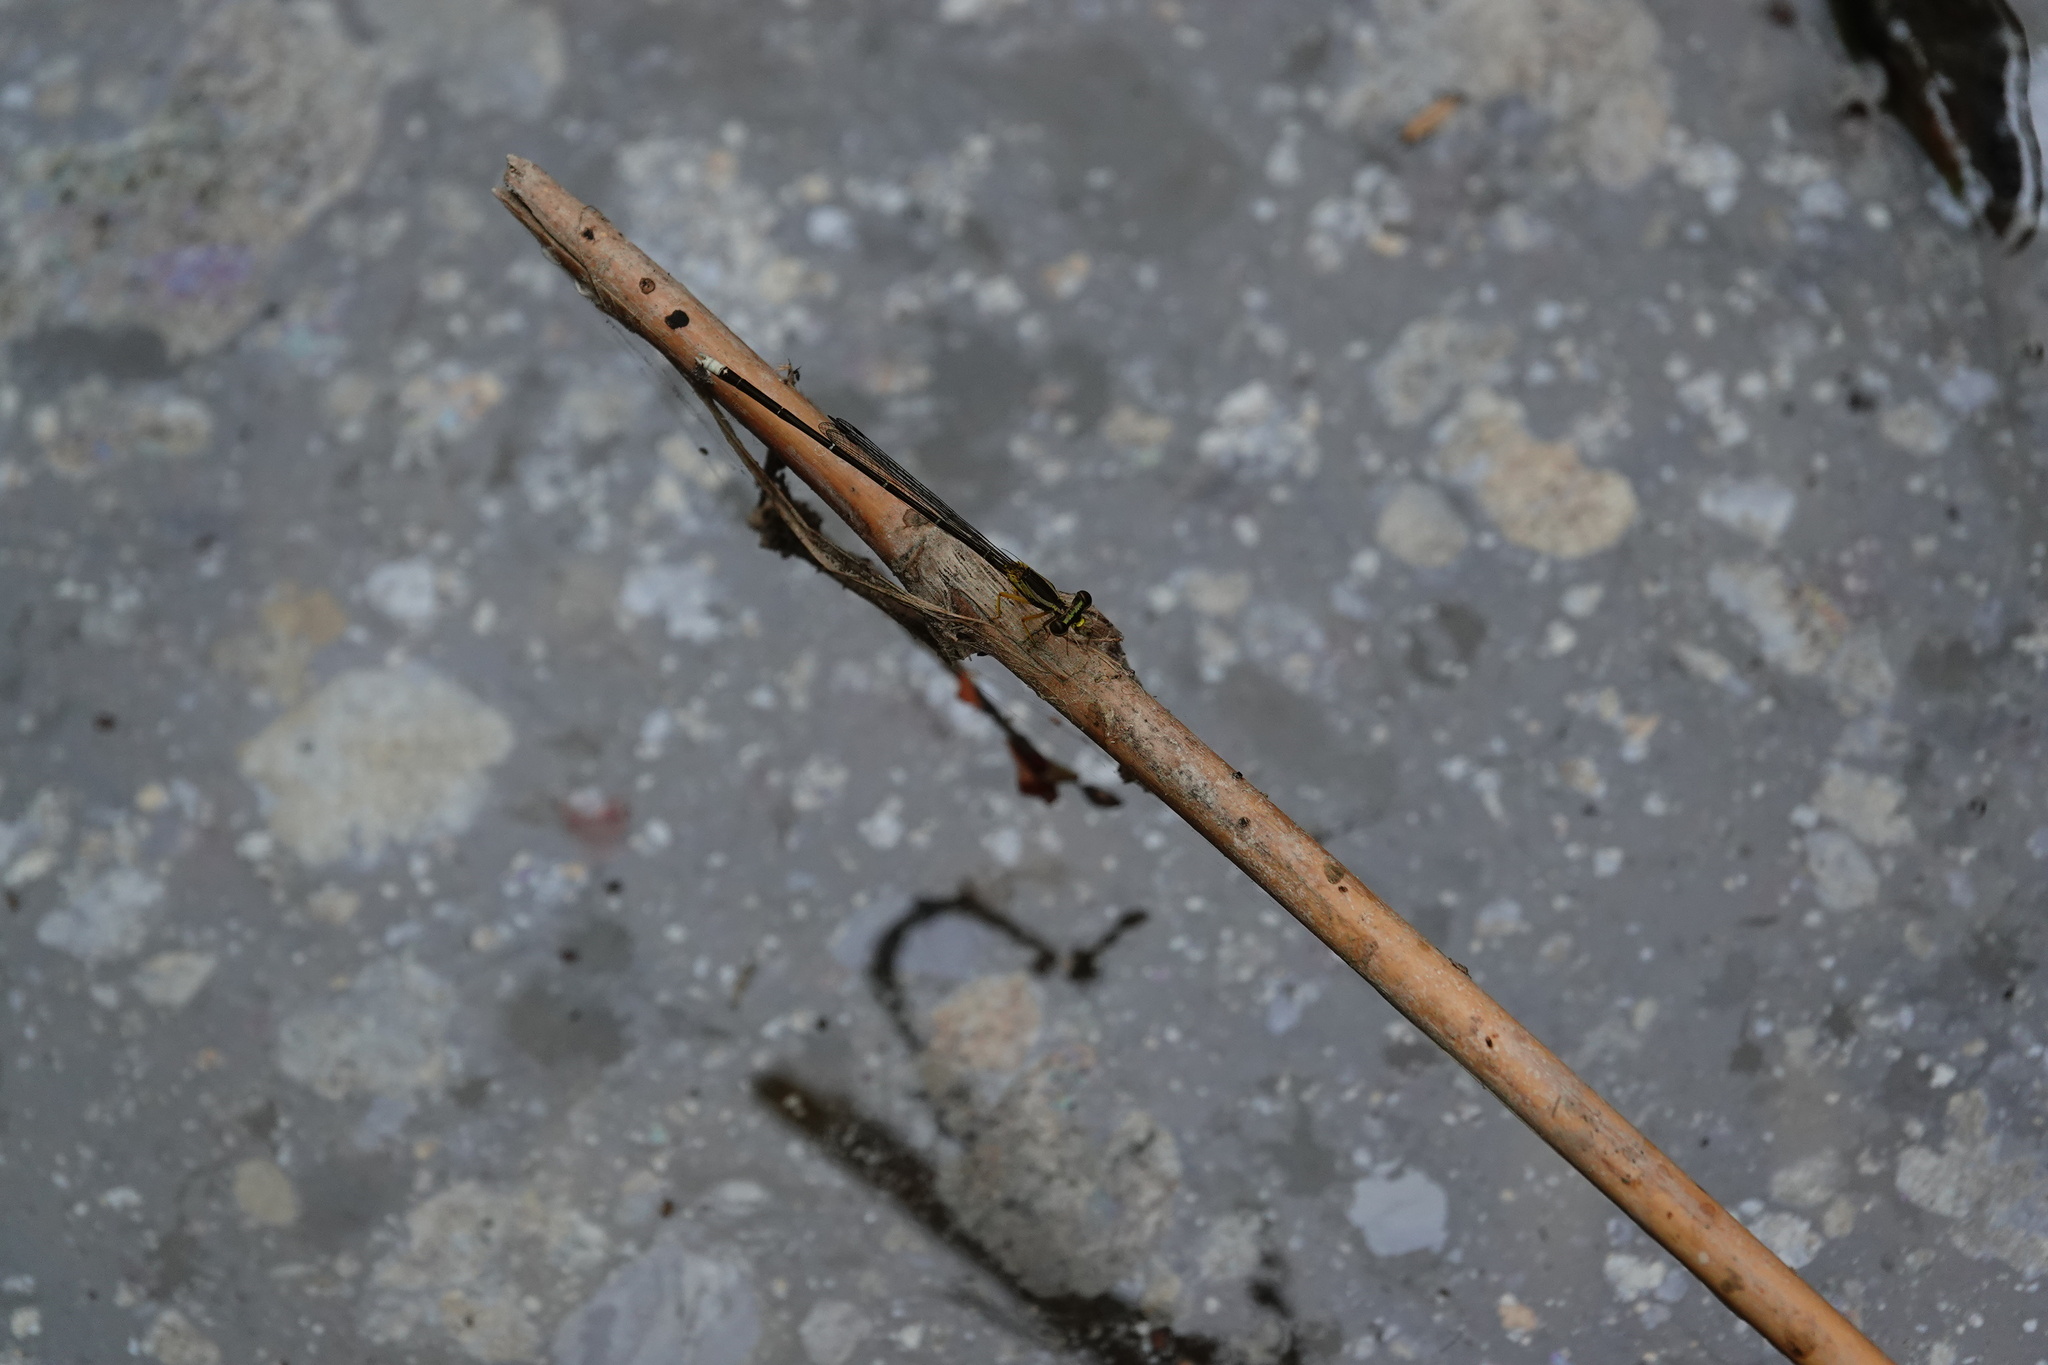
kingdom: Animalia
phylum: Arthropoda
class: Insecta
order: Odonata
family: Platycnemididae
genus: Copera
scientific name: Copera marginipes
